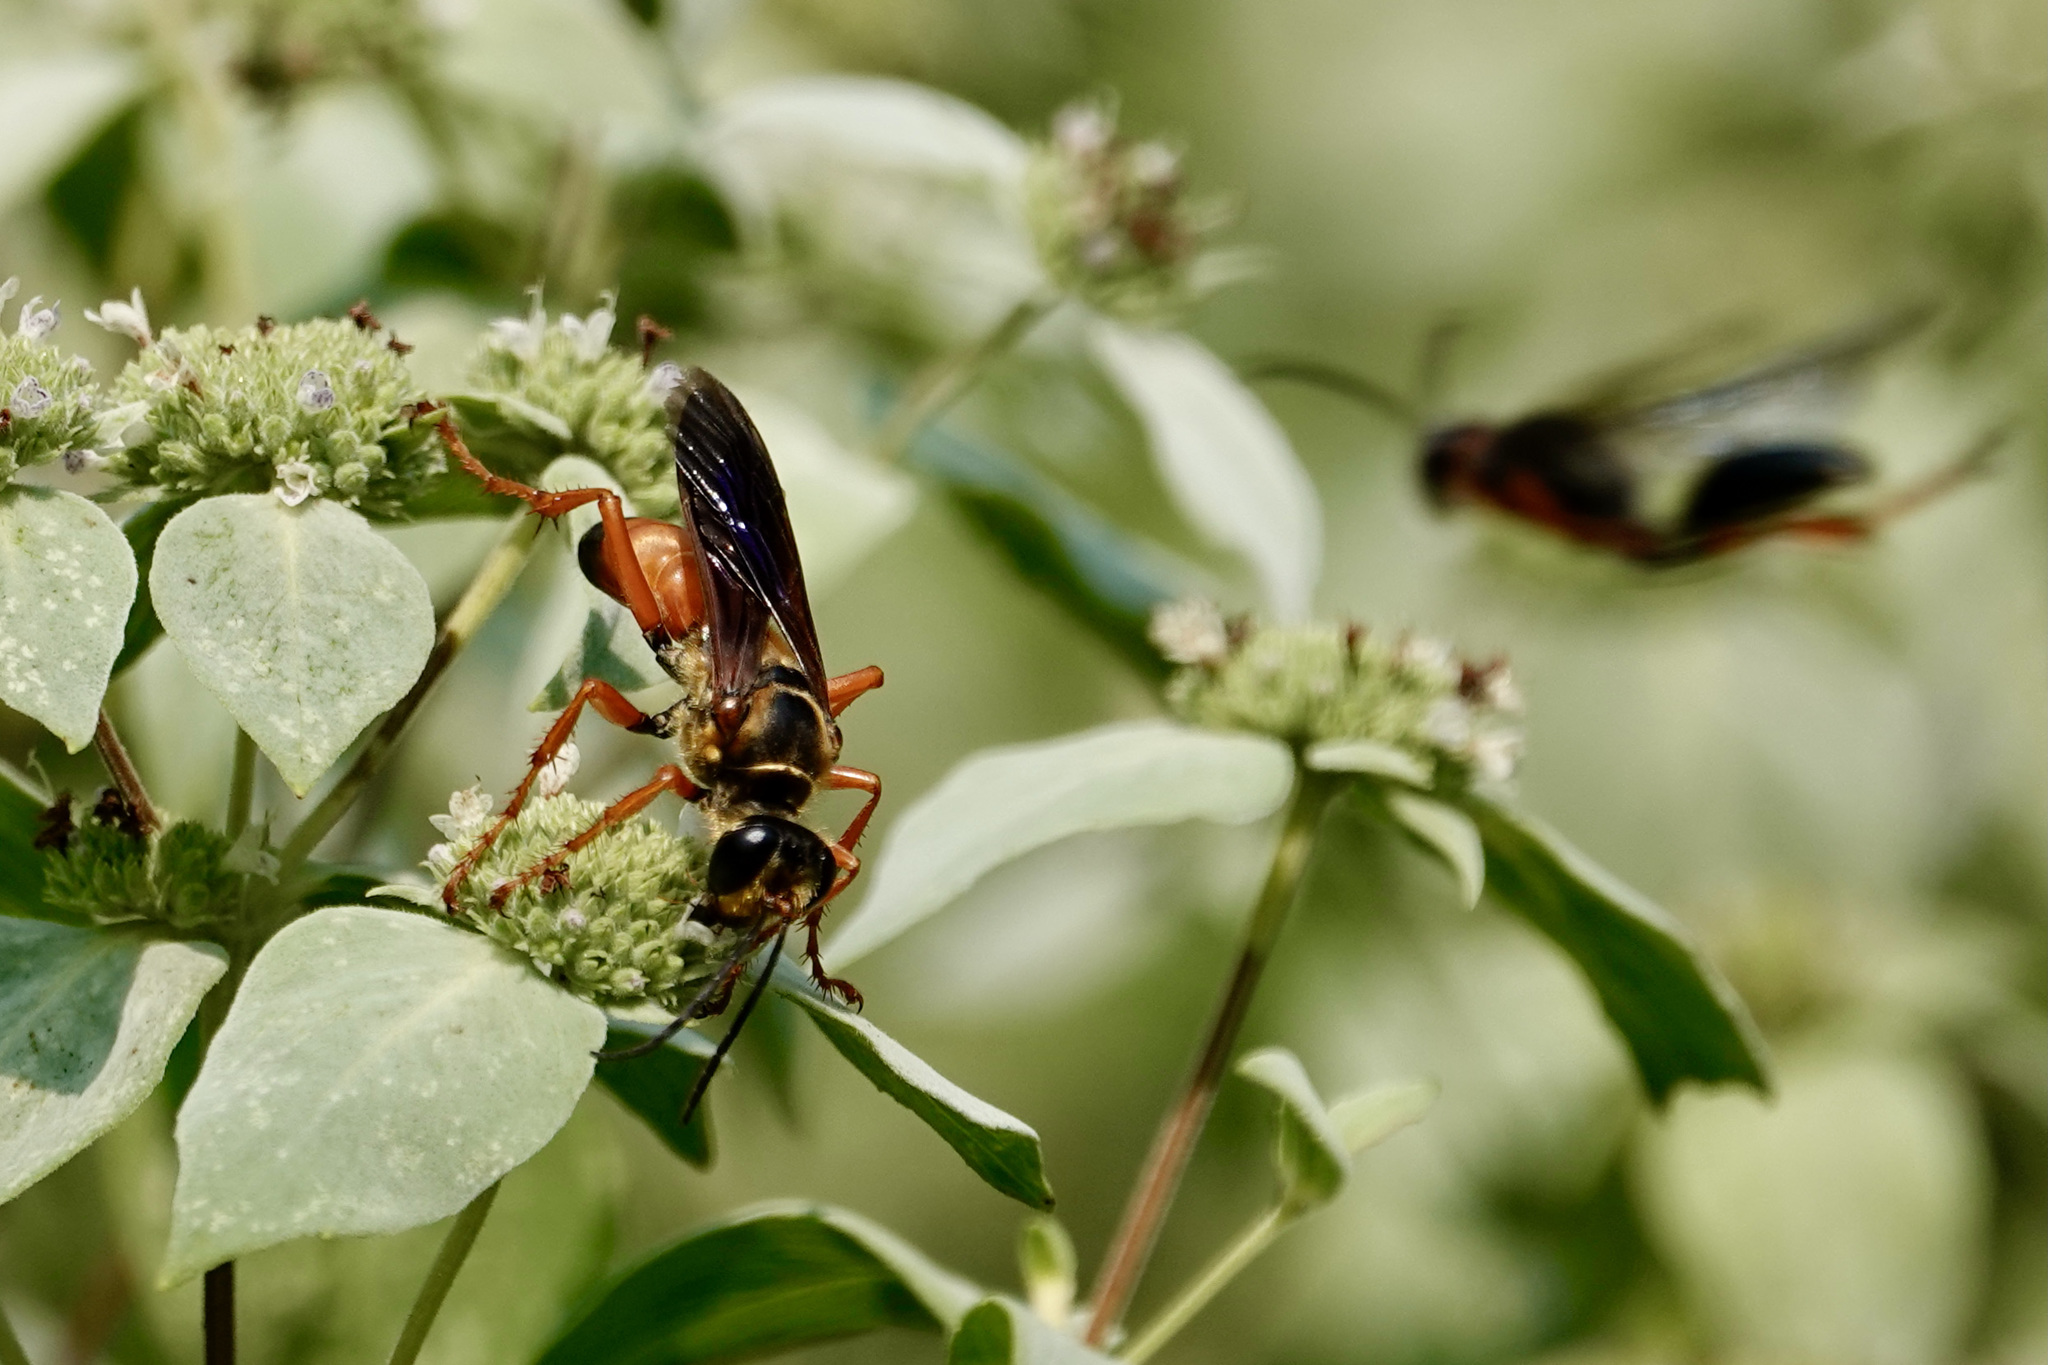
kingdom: Animalia
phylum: Arthropoda
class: Insecta
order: Hymenoptera
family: Sphecidae
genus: Sphex
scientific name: Sphex ichneumoneus
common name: Great golden digger wasp
